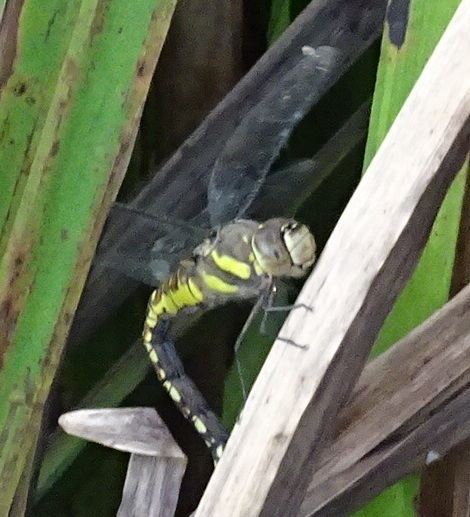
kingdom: Animalia
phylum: Arthropoda
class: Insecta
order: Odonata
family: Aeshnidae
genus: Aeshna
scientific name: Aeshna mixta
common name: Migrant hawker
